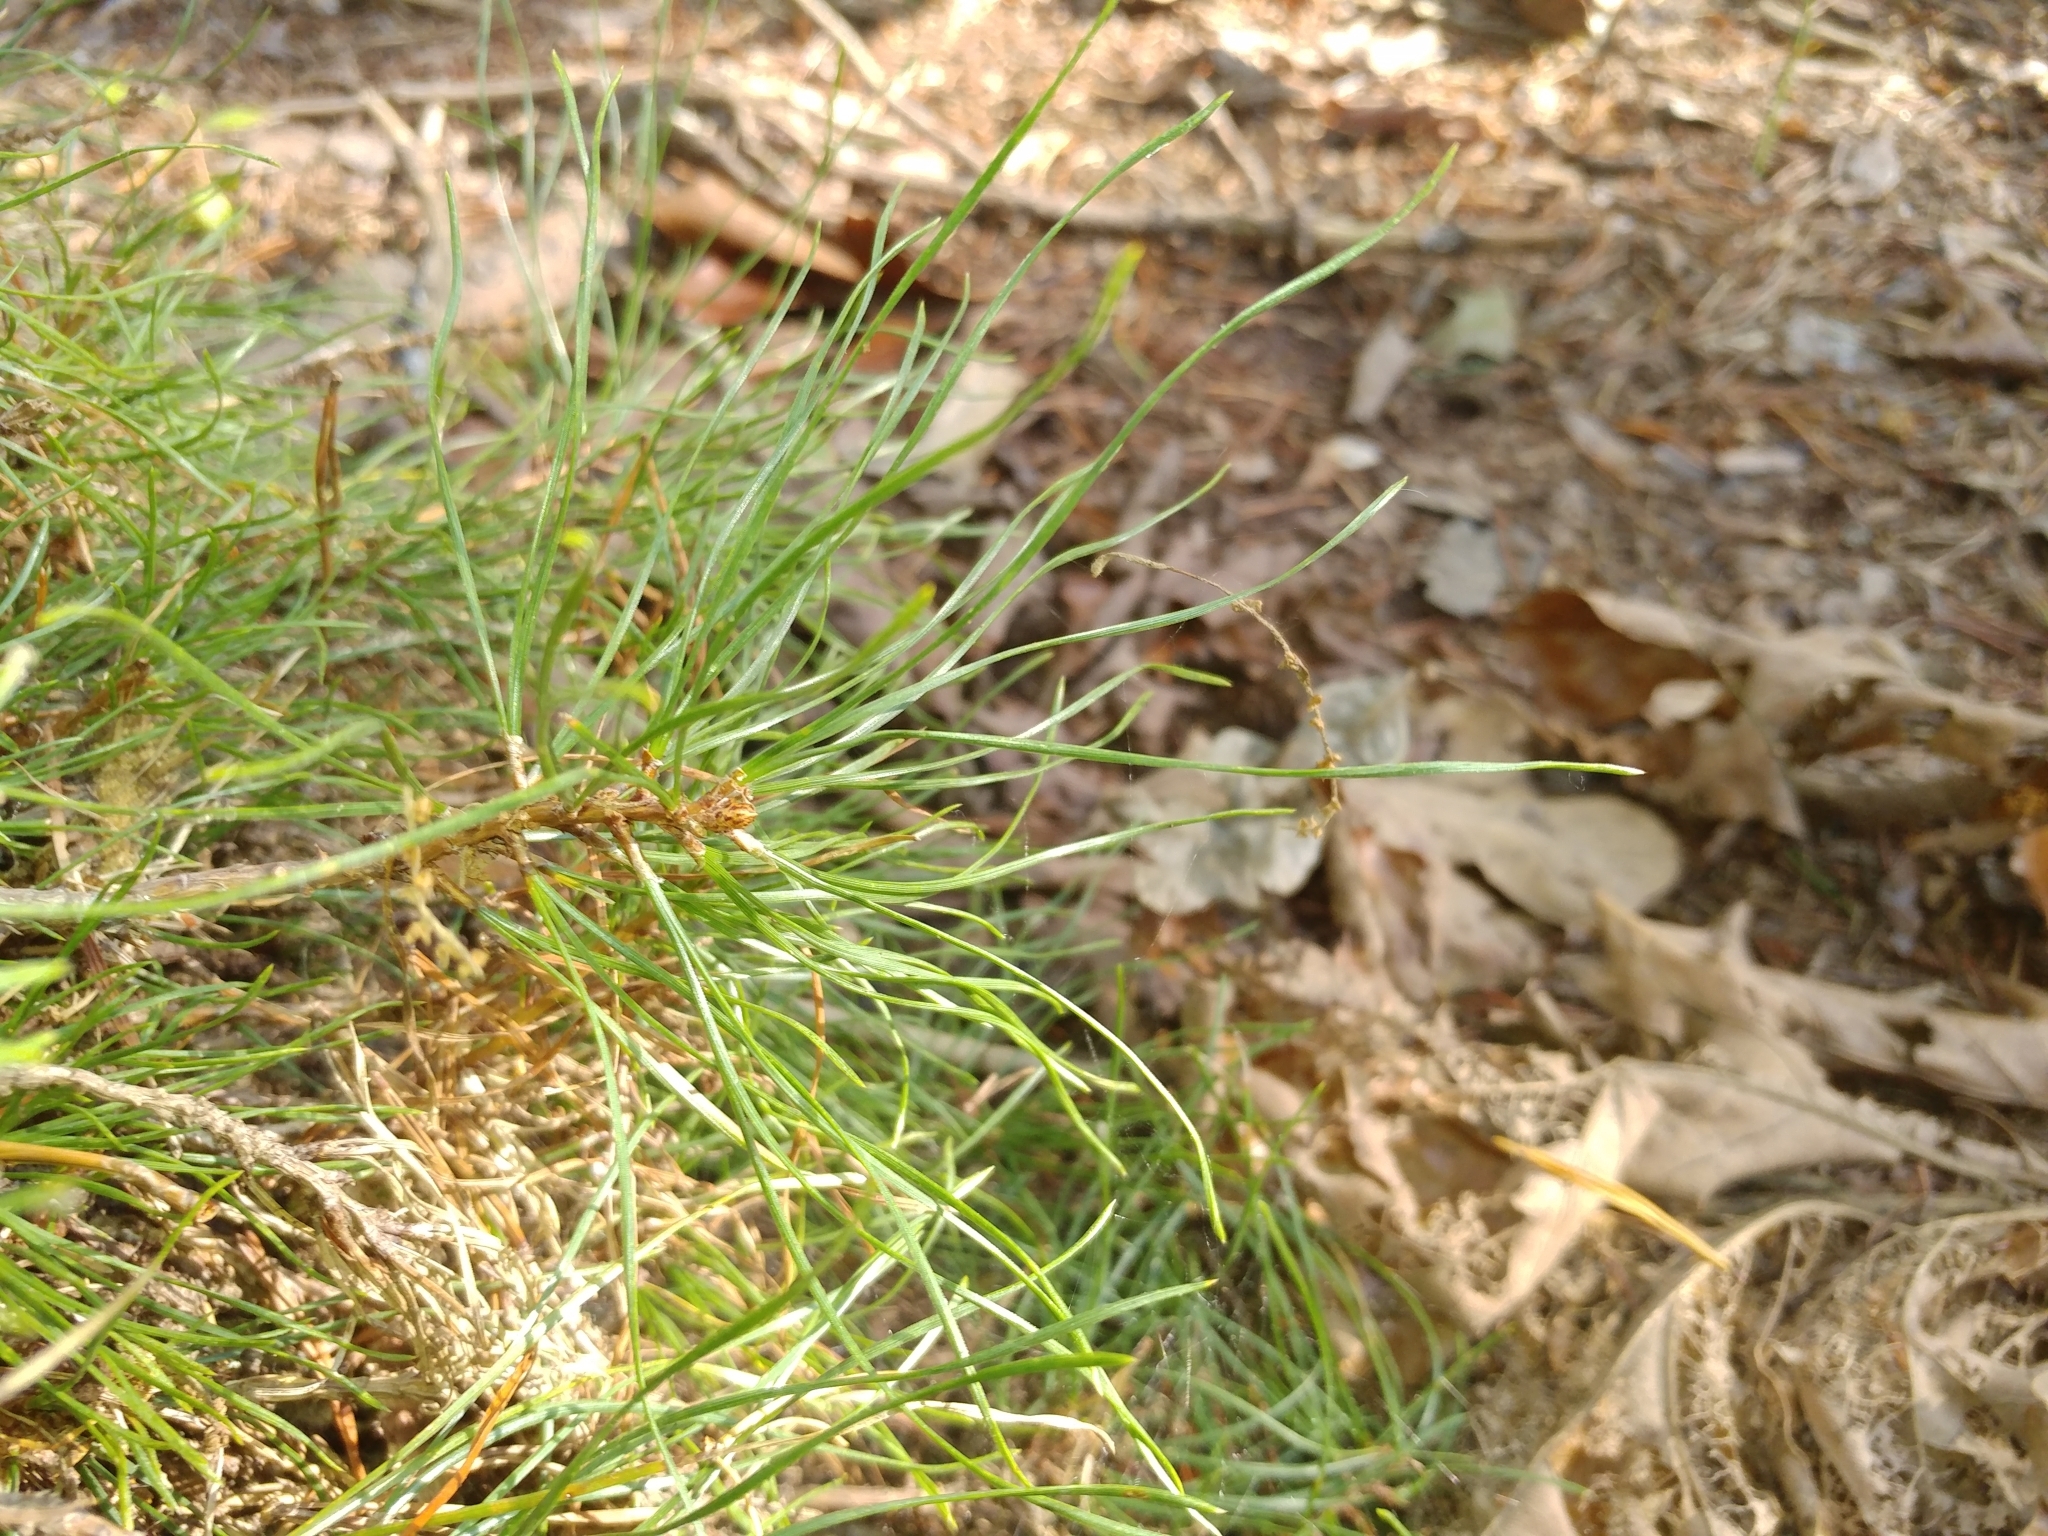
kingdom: Plantae
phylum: Tracheophyta
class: Pinopsida
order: Pinales
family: Pinaceae
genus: Pinus
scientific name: Pinus rigida
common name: Pitch pine
